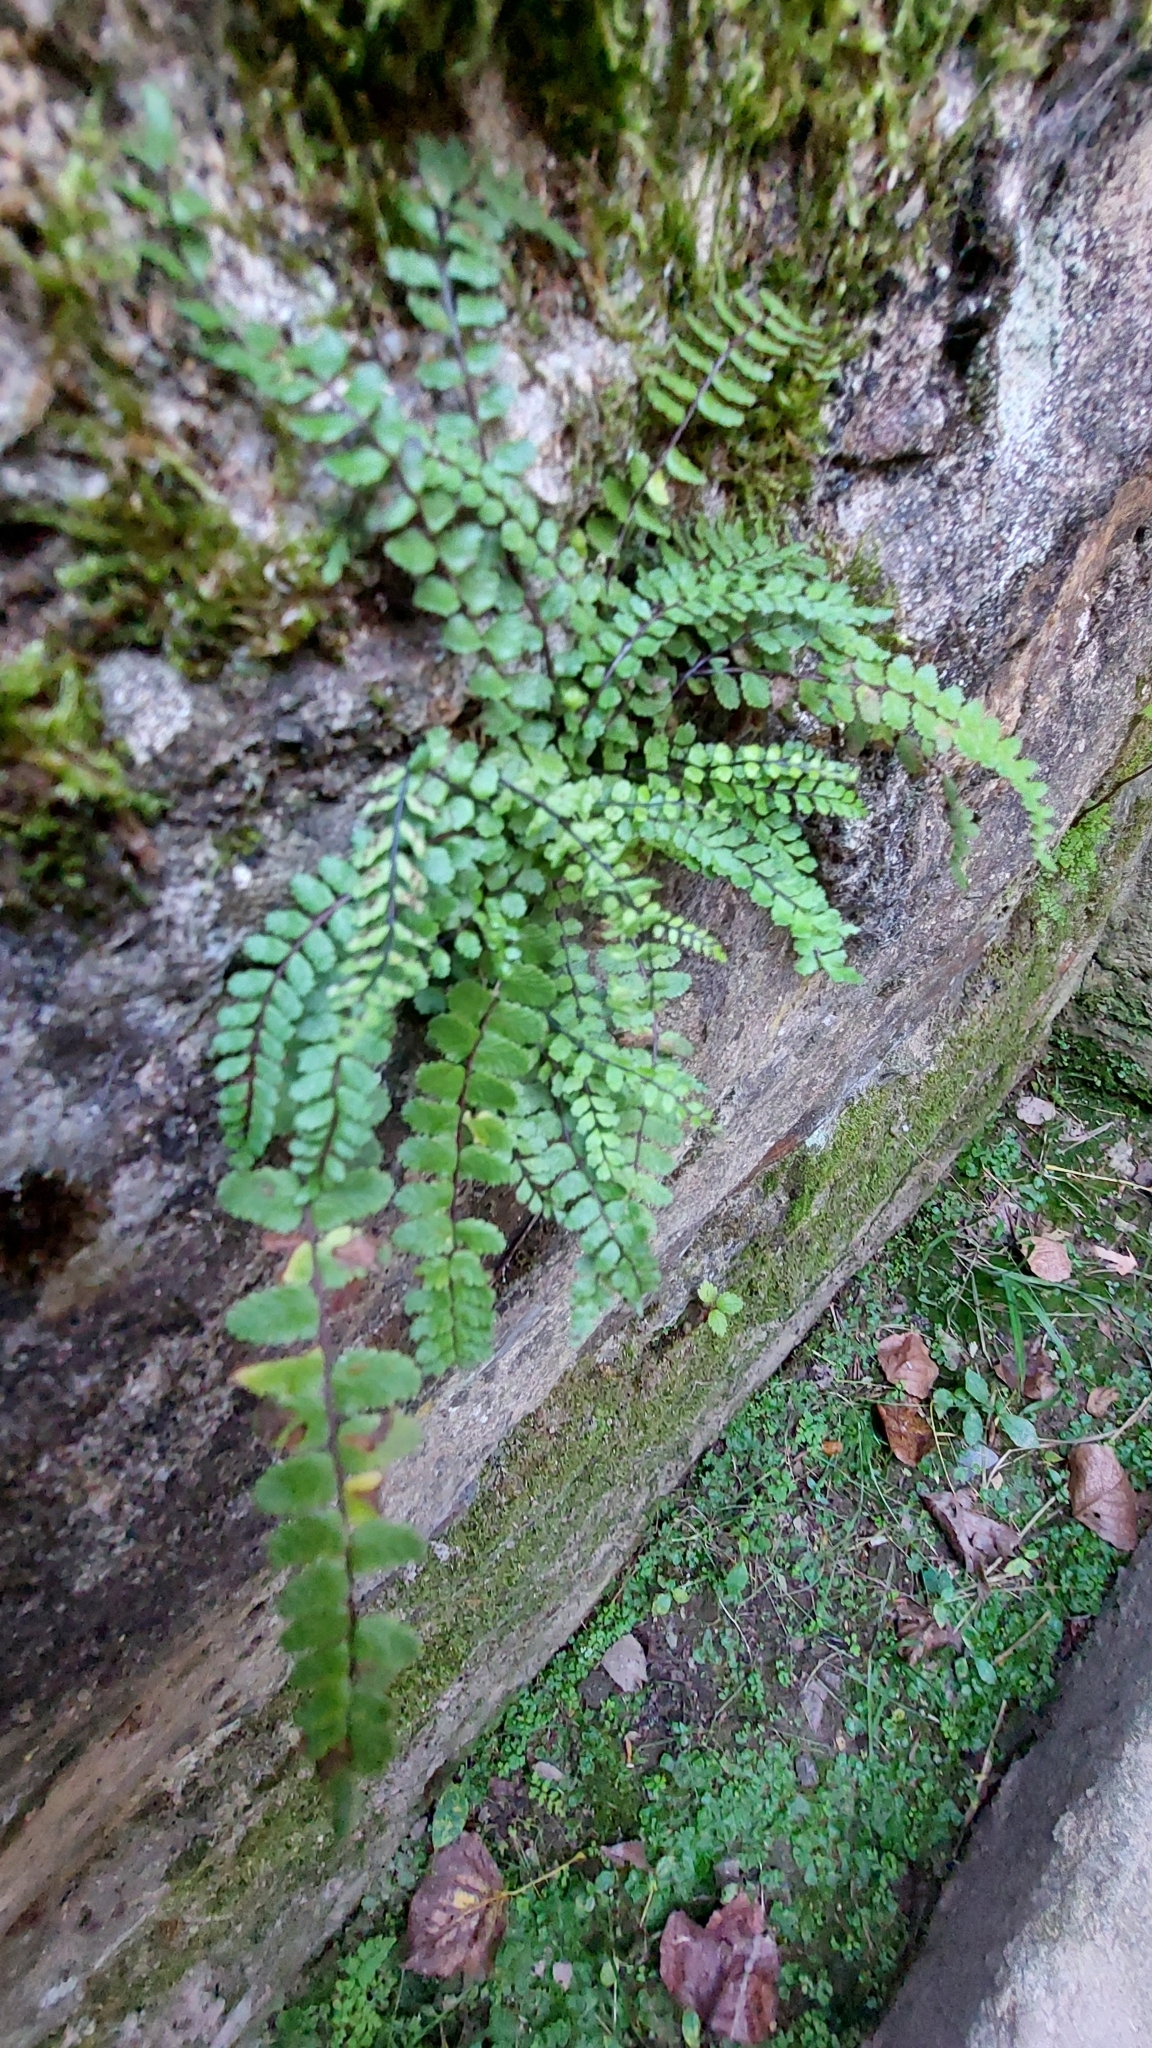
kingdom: Plantae
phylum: Tracheophyta
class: Polypodiopsida
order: Polypodiales
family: Aspleniaceae
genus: Asplenium
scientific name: Asplenium trichomanes
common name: Maidenhair spleenwort
